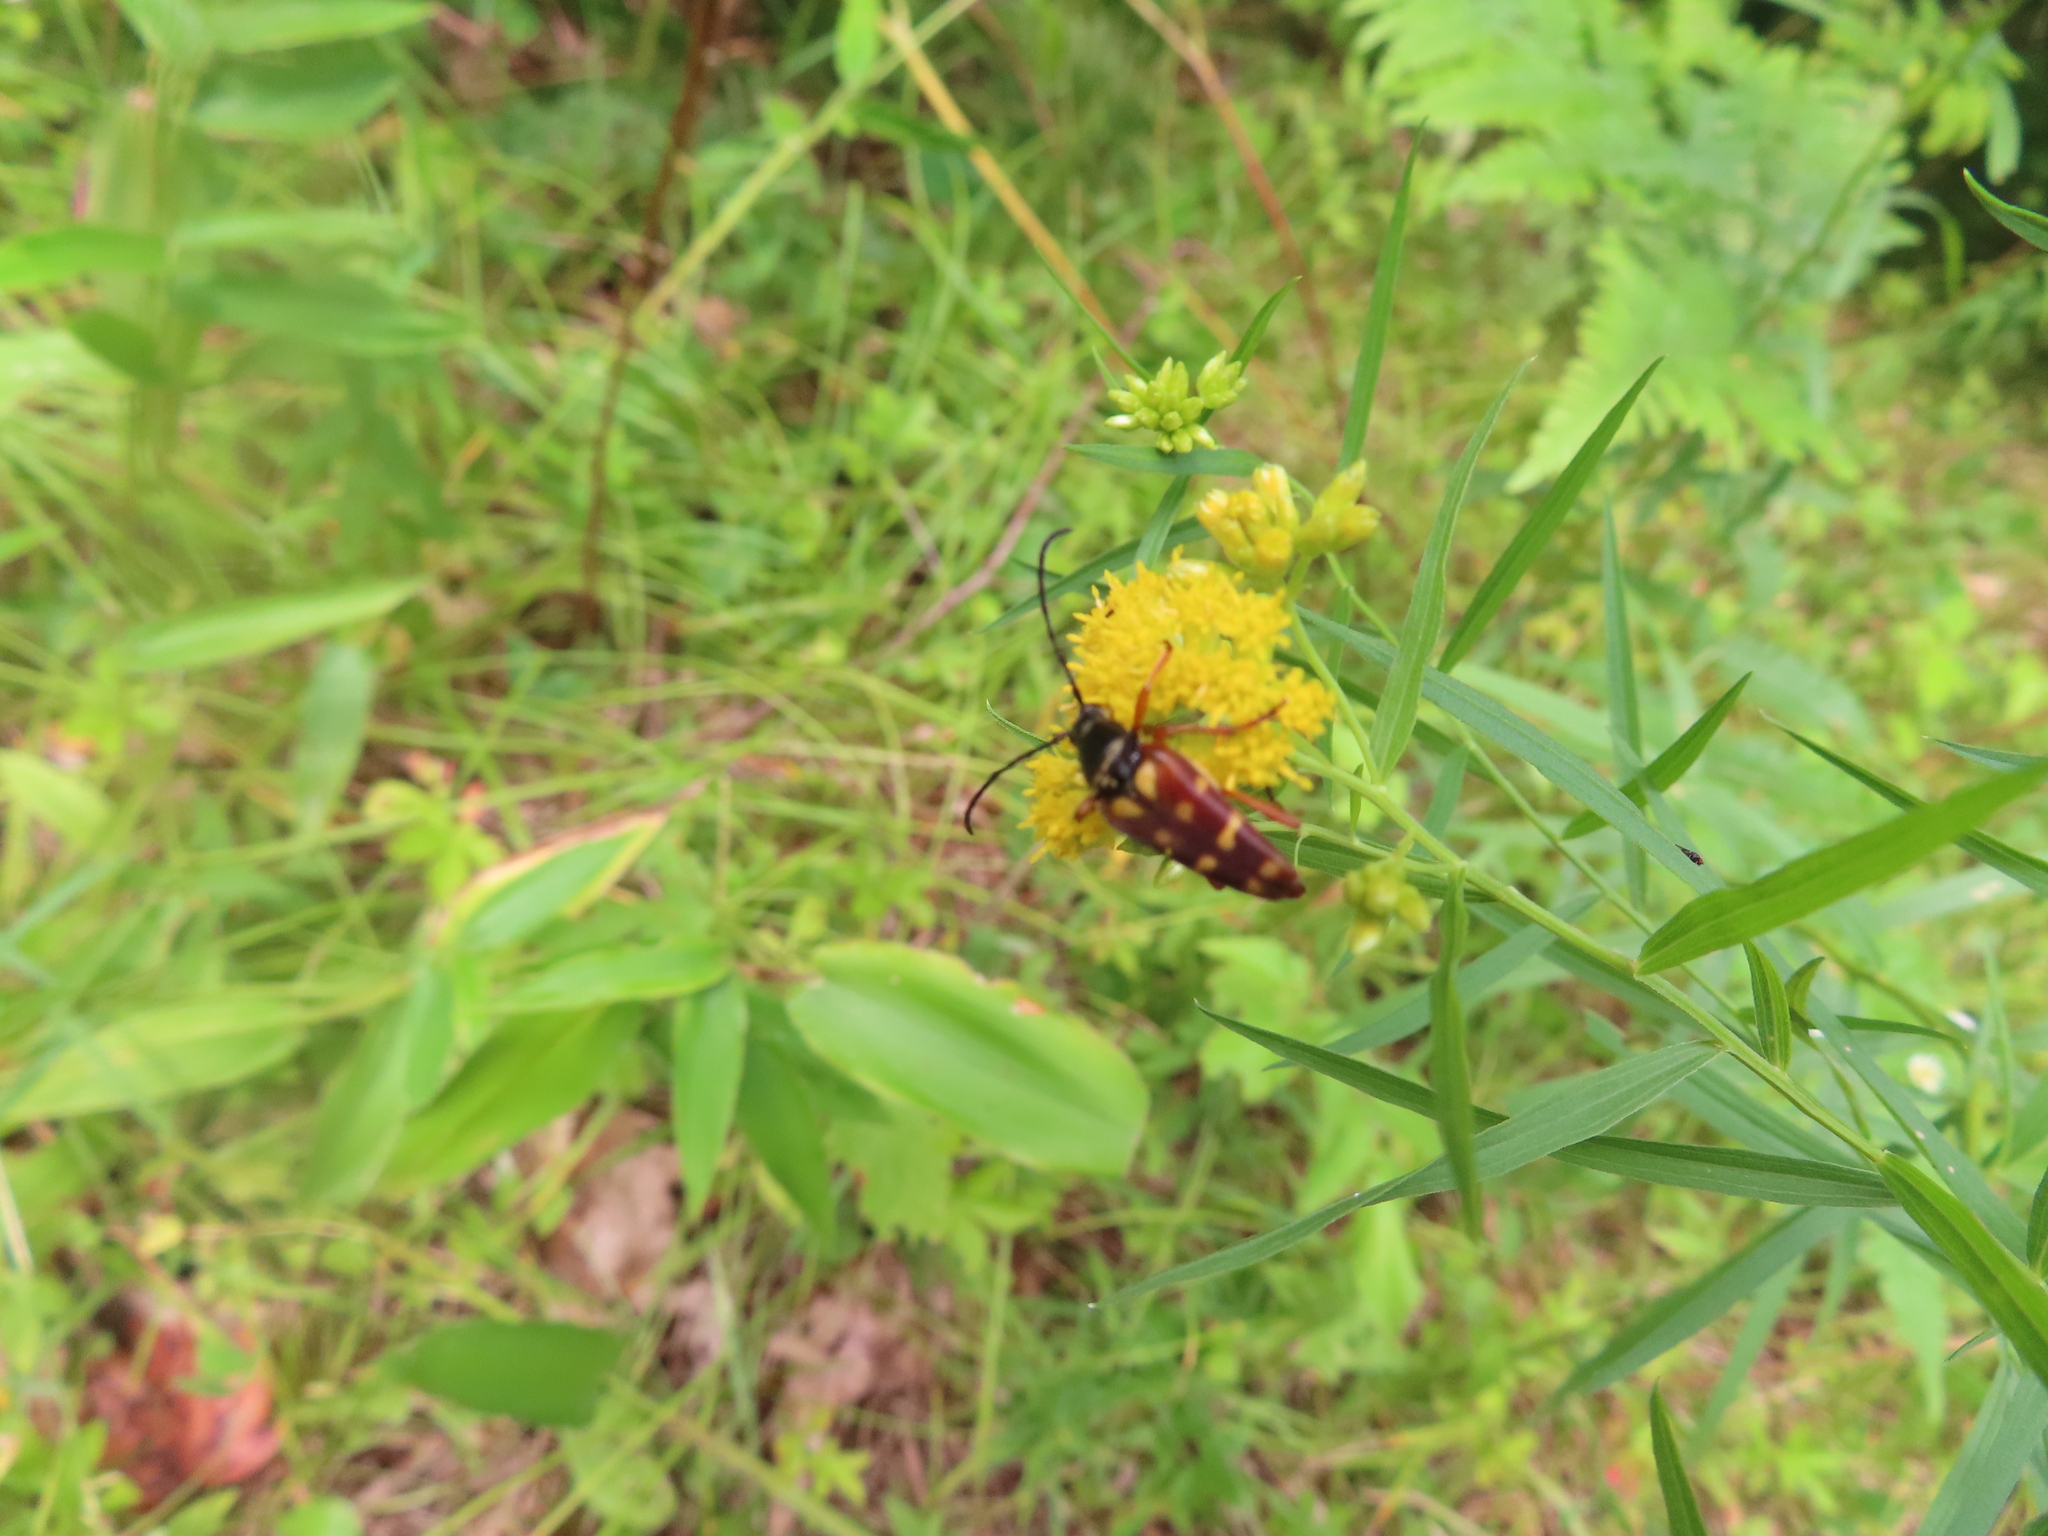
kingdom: Animalia
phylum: Arthropoda
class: Insecta
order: Coleoptera
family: Cerambycidae
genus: Typocerus
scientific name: Typocerus velutinus
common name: Banded longhorn beetle
